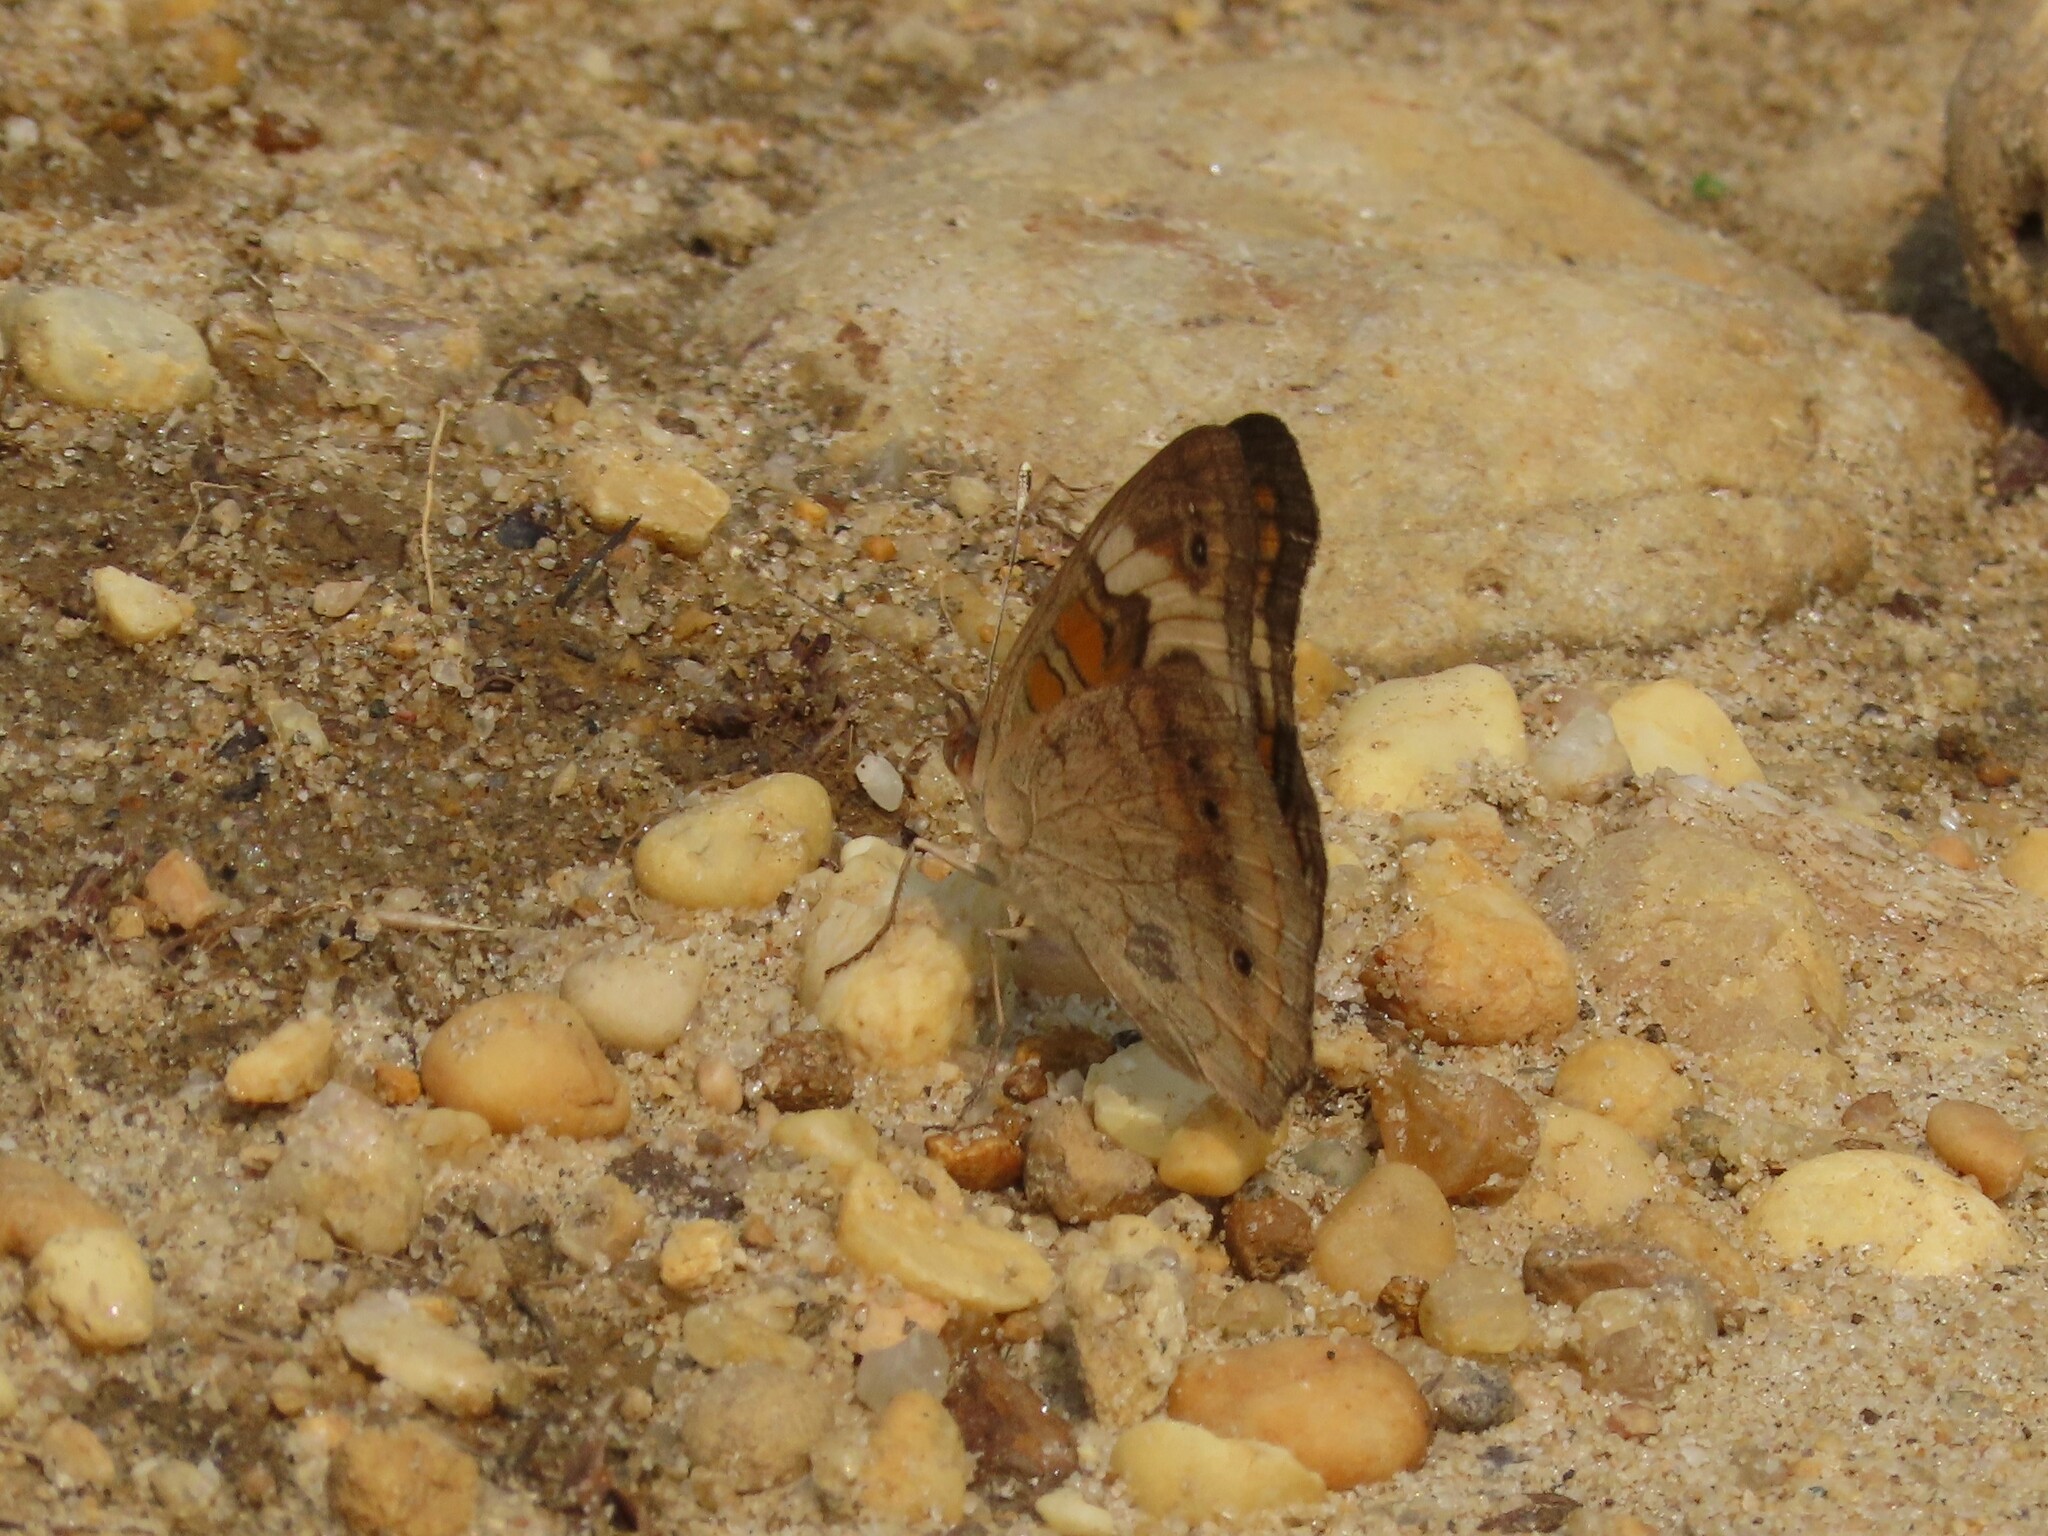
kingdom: Animalia
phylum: Arthropoda
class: Insecta
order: Lepidoptera
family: Nymphalidae
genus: Junonia
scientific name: Junonia coenia
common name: Common buckeye
